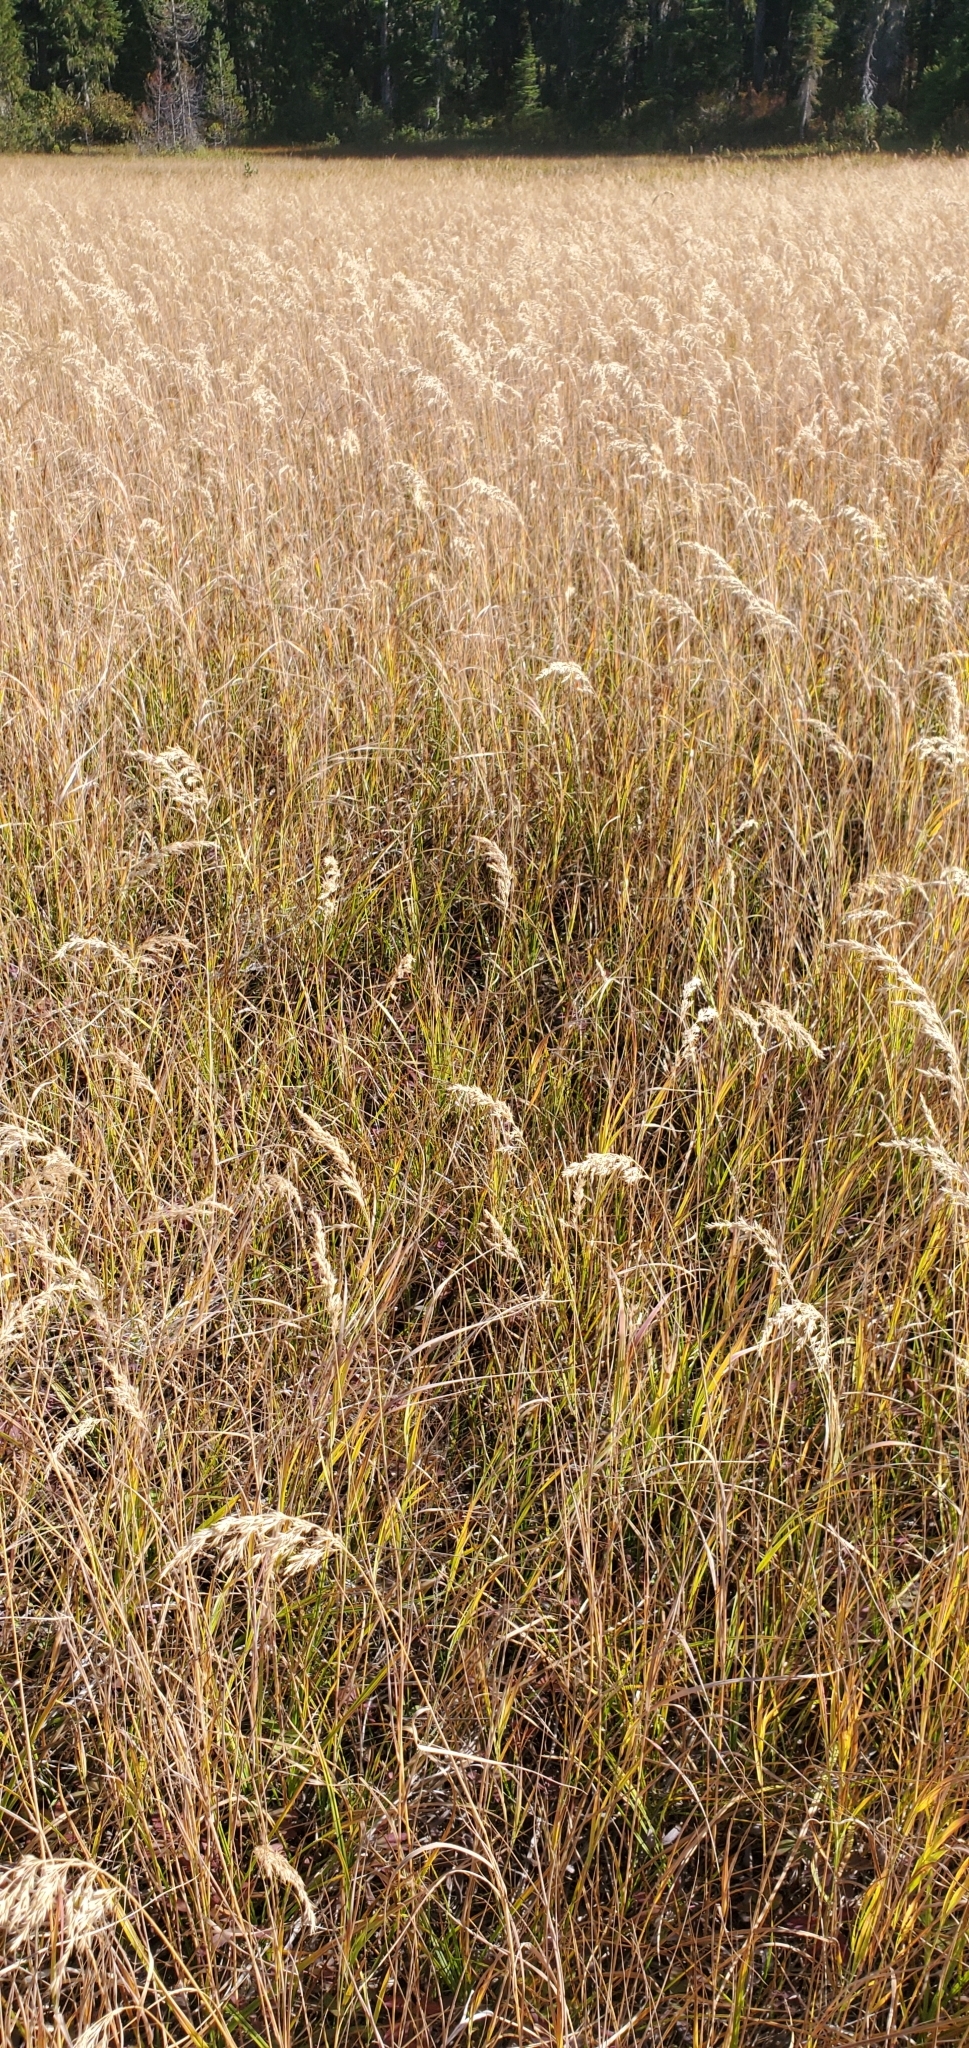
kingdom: Plantae
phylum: Tracheophyta
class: Liliopsida
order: Poales
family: Poaceae
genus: Calamagrostis
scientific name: Calamagrostis canadensis
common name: Canada bluejoint
